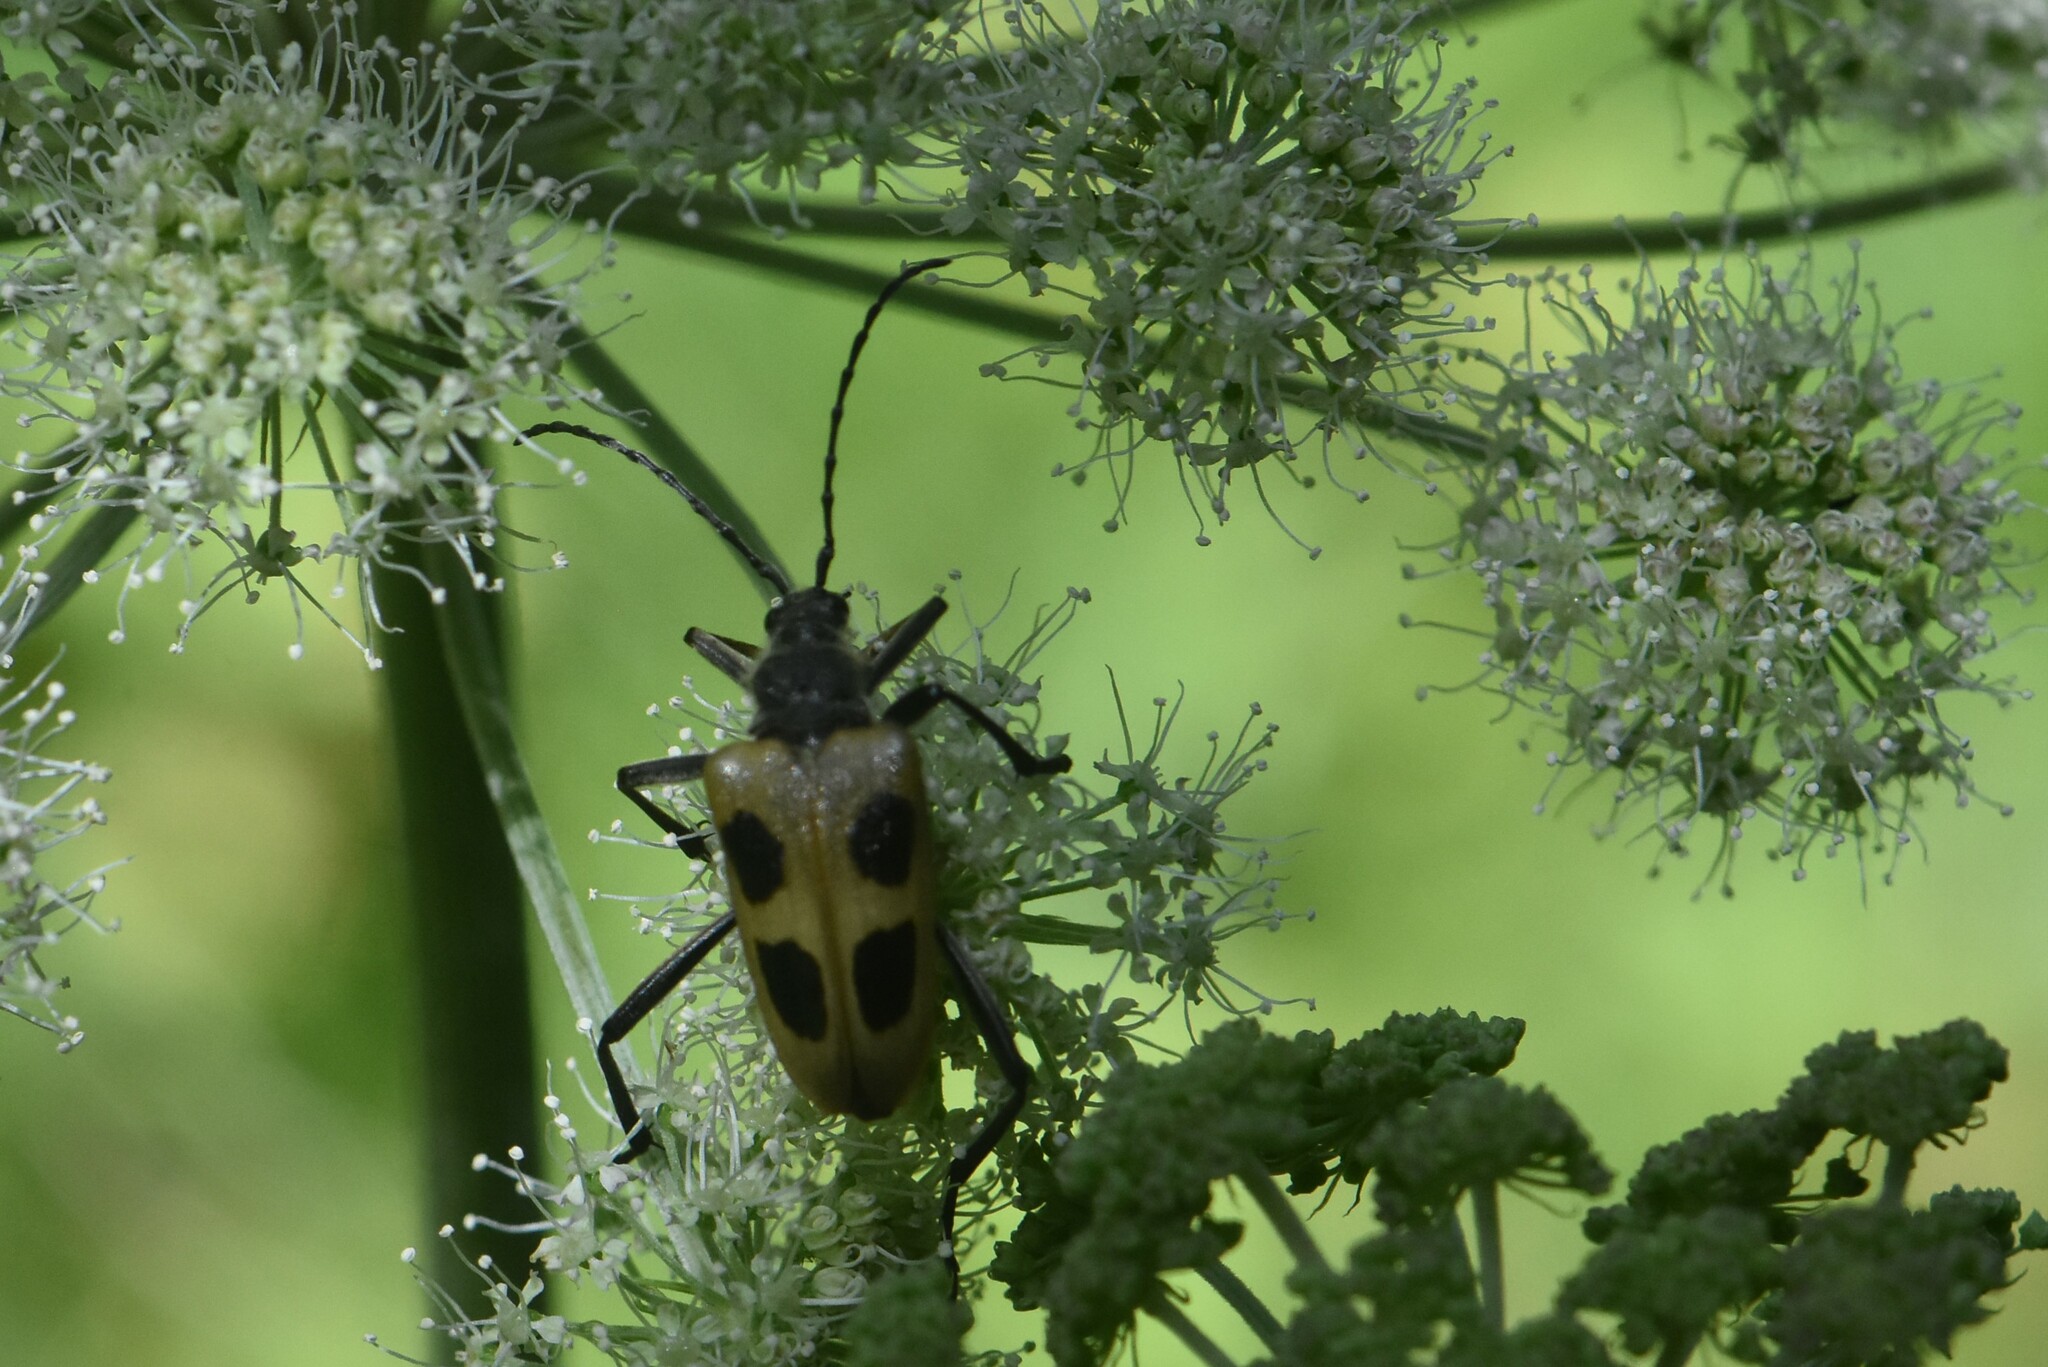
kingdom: Animalia
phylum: Arthropoda
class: Insecta
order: Coleoptera
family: Cerambycidae
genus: Pachyta
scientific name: Pachyta quadrimaculata
